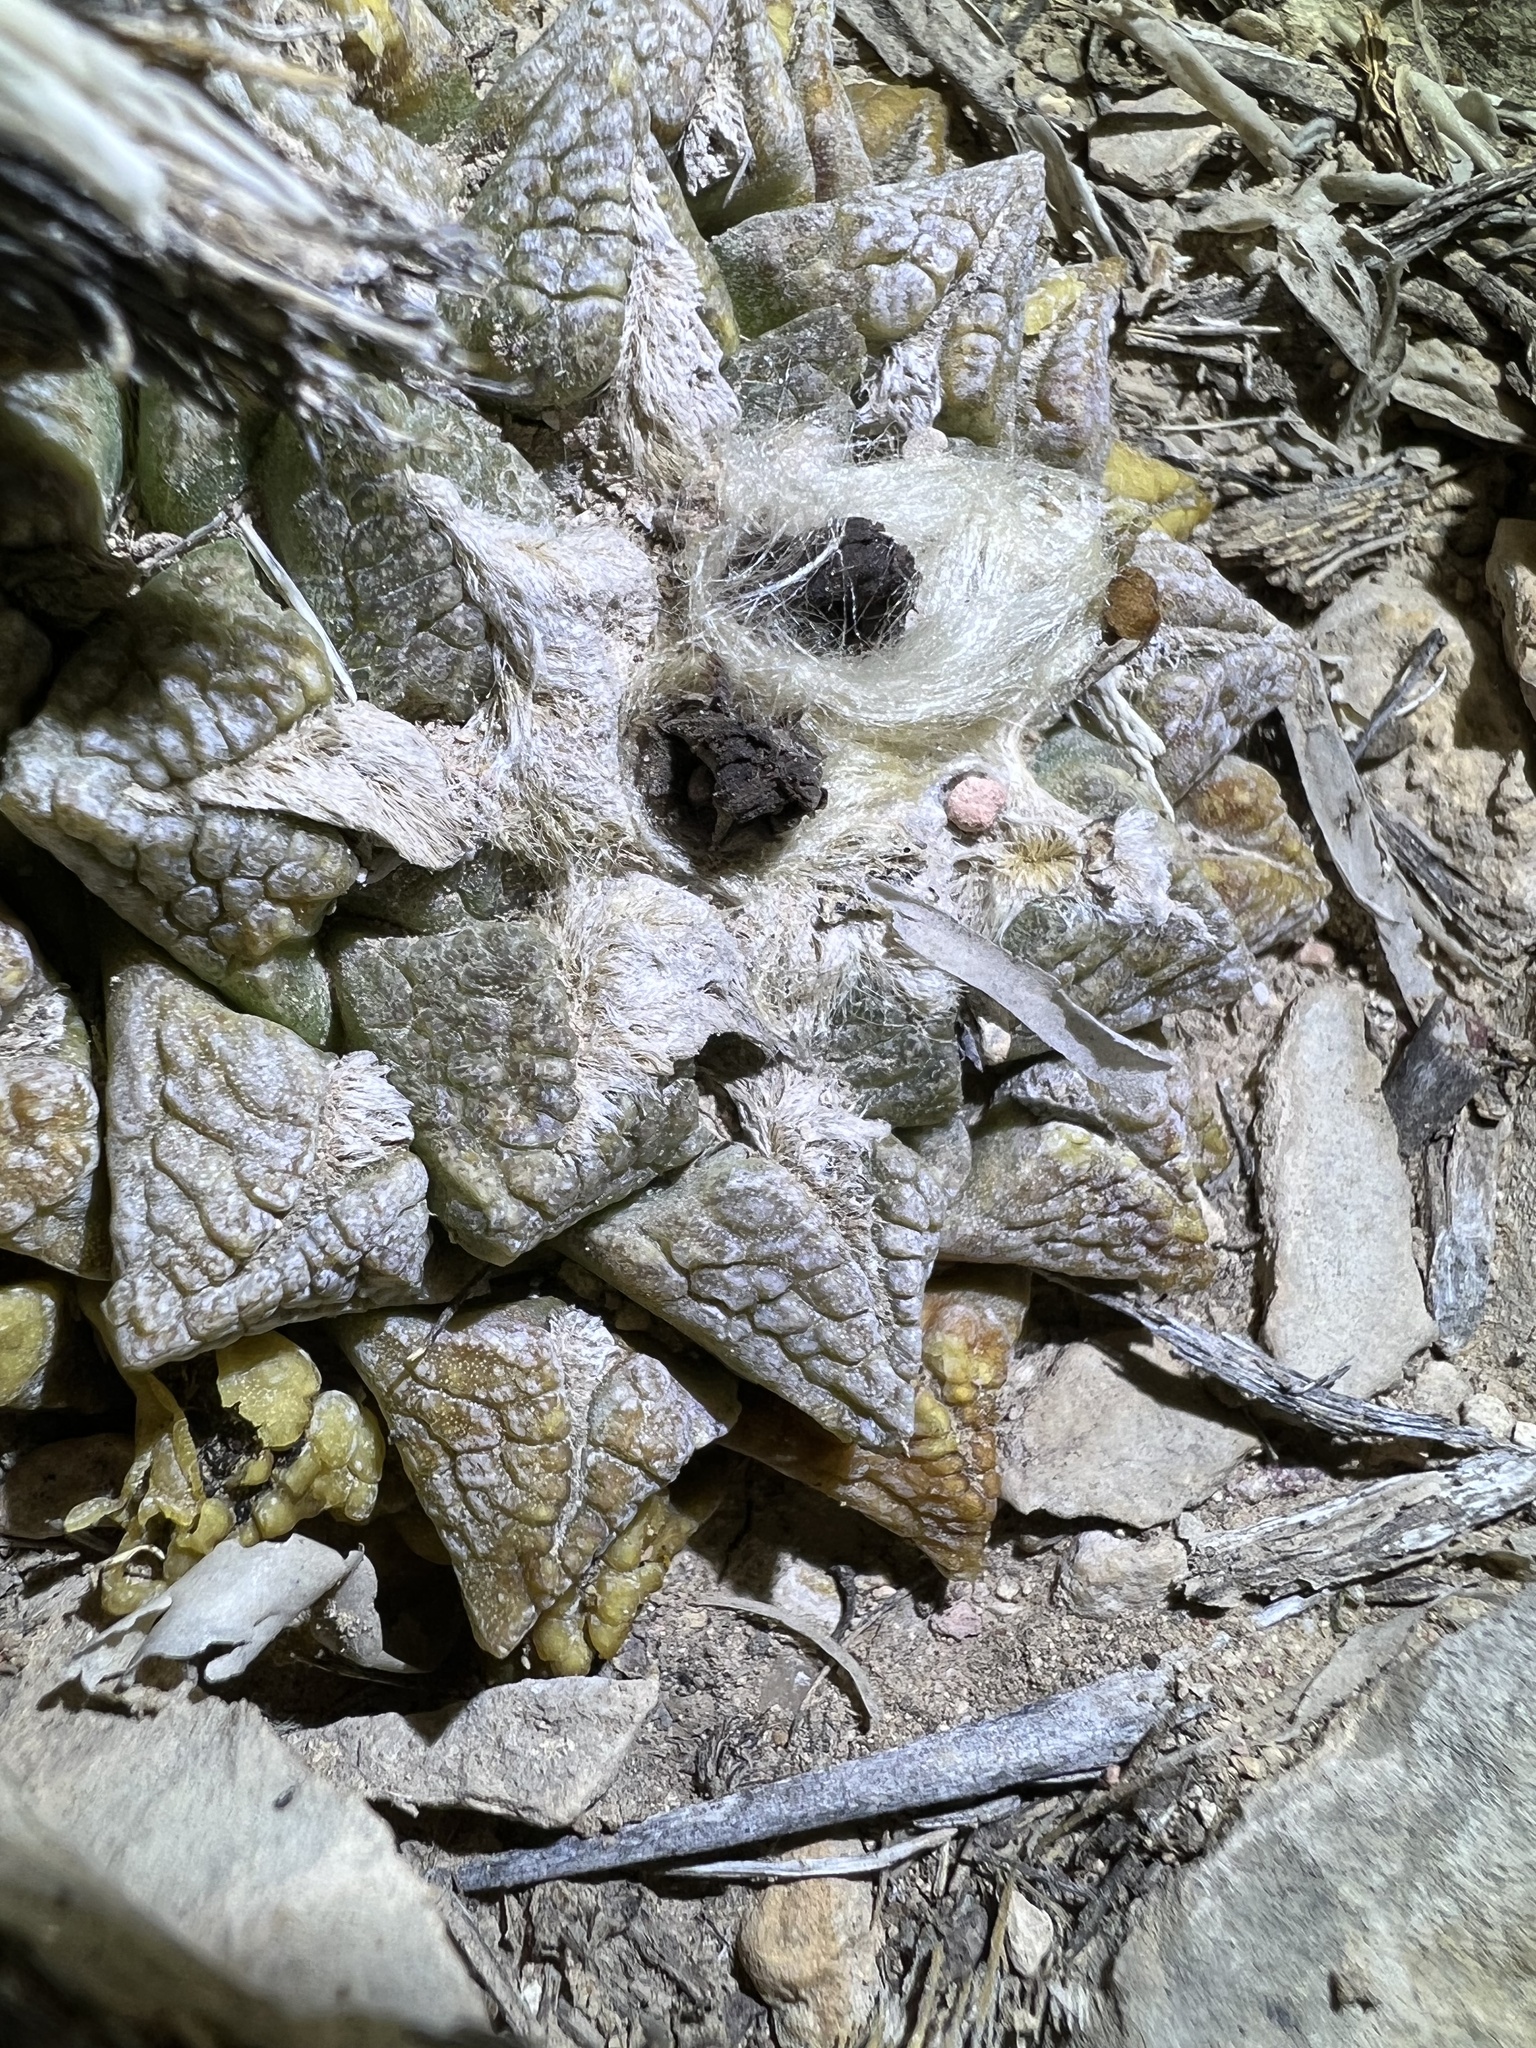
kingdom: Plantae
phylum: Tracheophyta
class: Magnoliopsida
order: Caryophyllales
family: Cactaceae
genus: Ariocarpus
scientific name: Ariocarpus fissuratus
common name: Chautle-living rock
